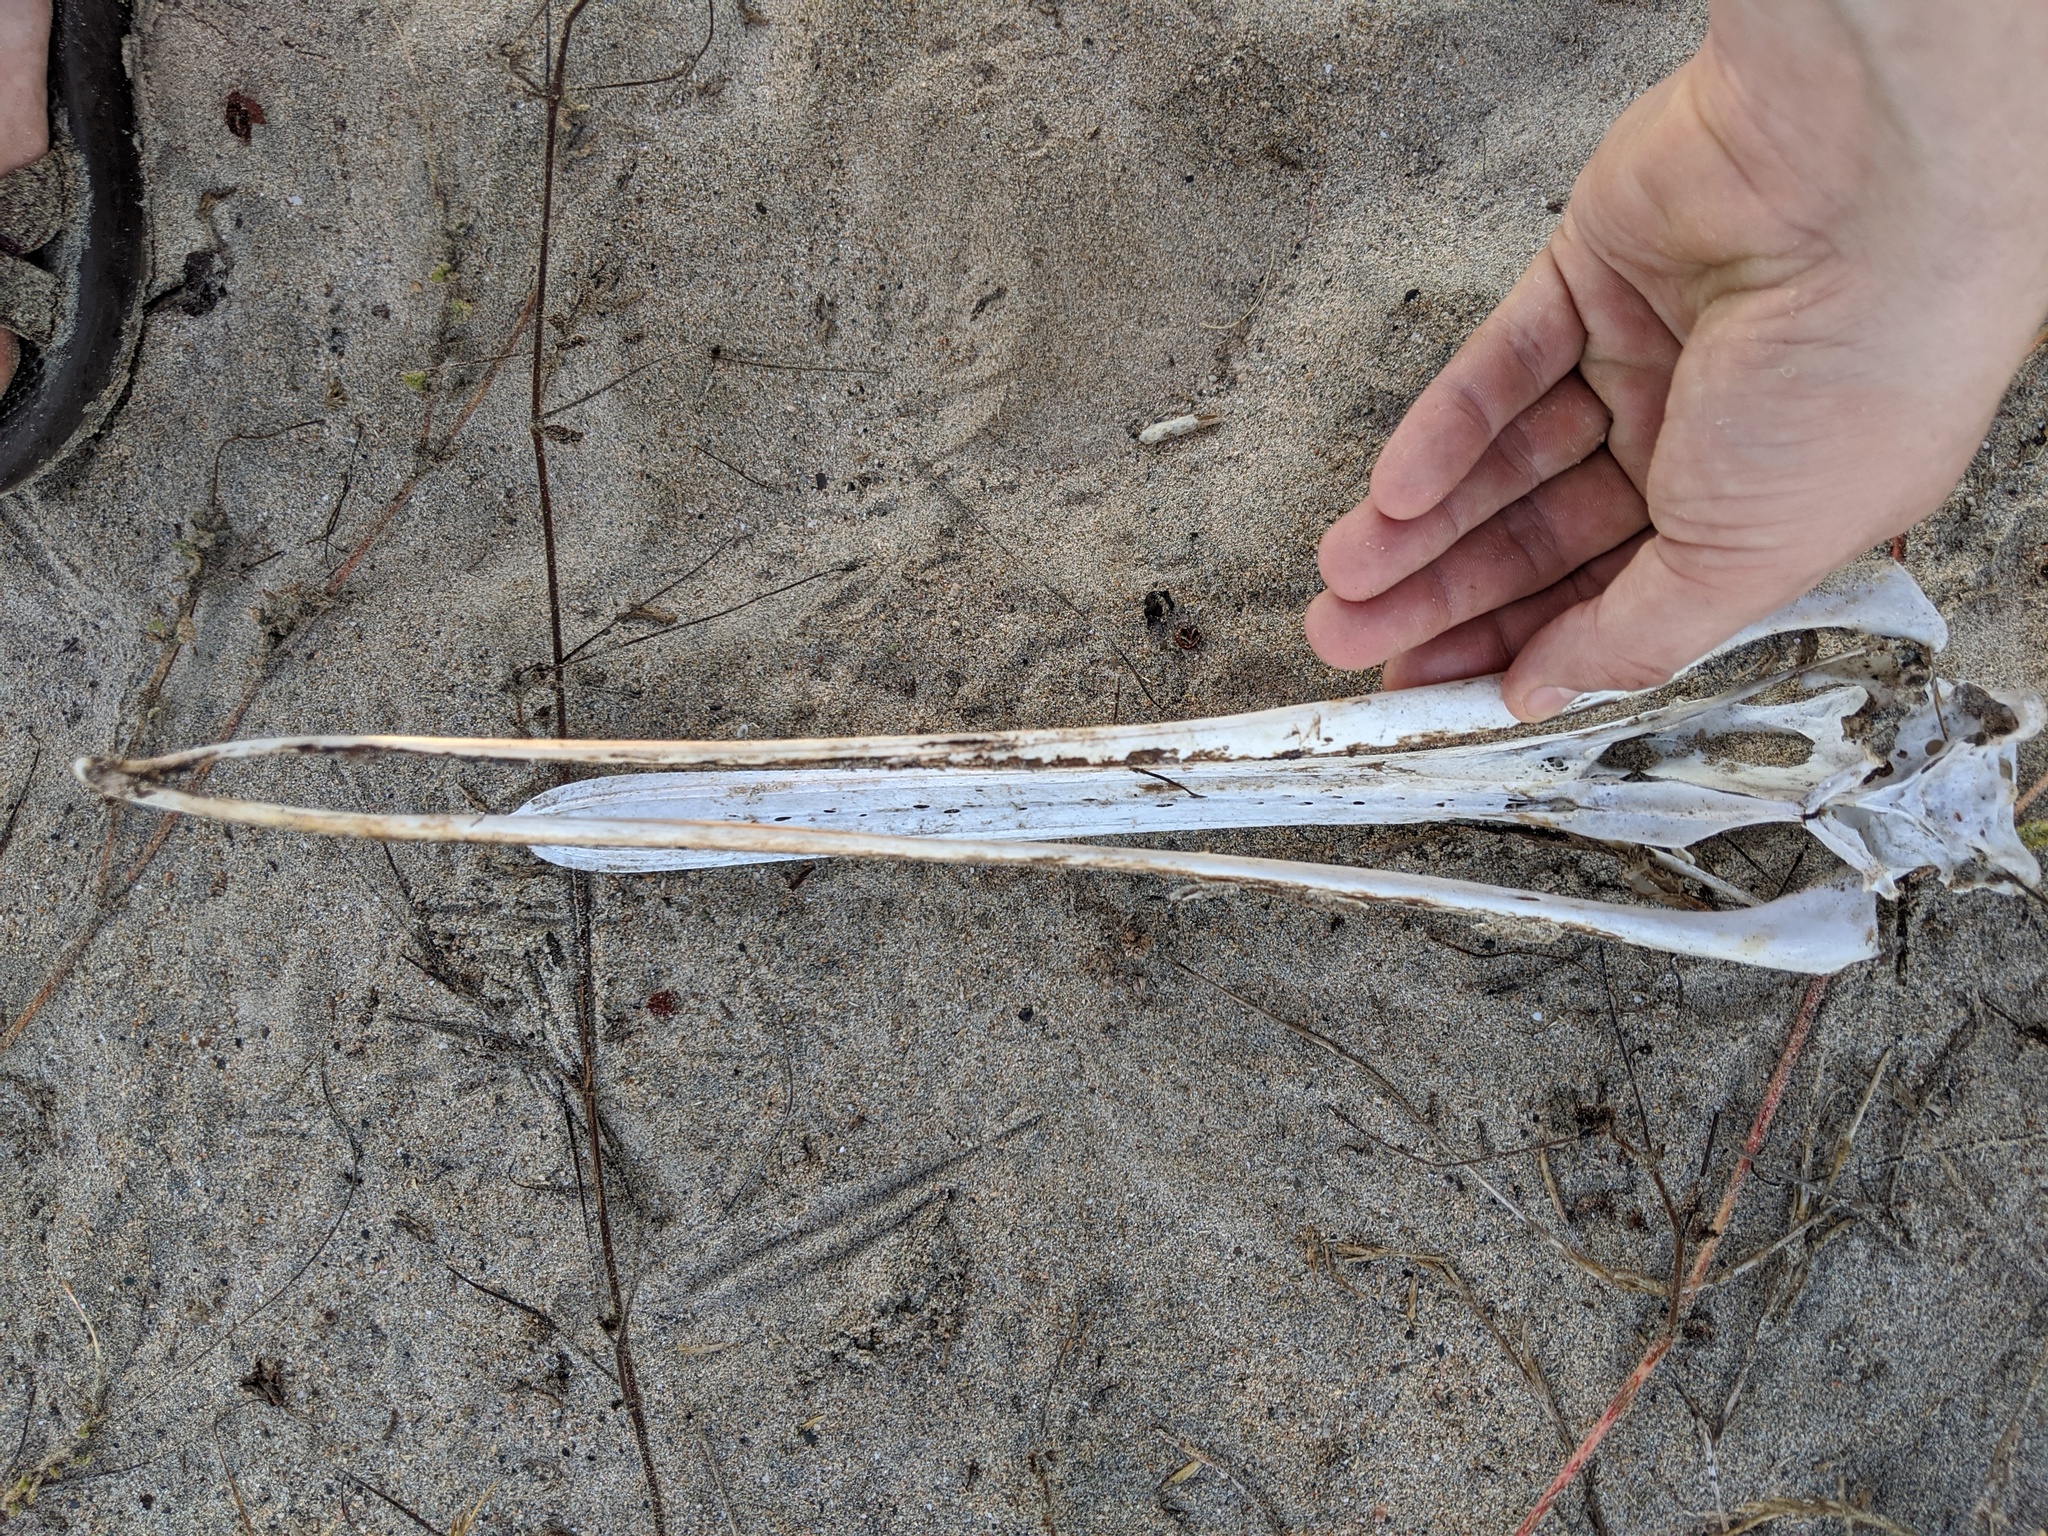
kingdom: Animalia
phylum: Chordata
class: Aves
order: Pelecaniformes
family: Pelecanidae
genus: Pelecanus
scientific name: Pelecanus occidentalis
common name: Brown pelican
